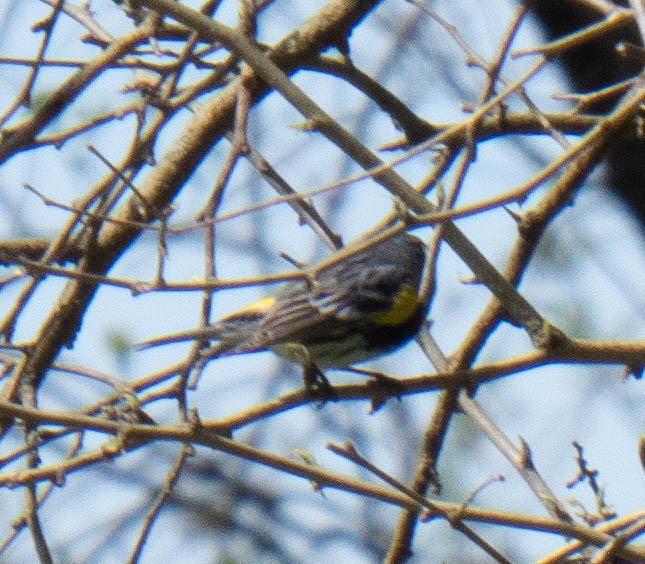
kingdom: Animalia
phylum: Chordata
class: Aves
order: Passeriformes
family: Parulidae
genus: Setophaga
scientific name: Setophaga coronata
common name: Myrtle warbler
